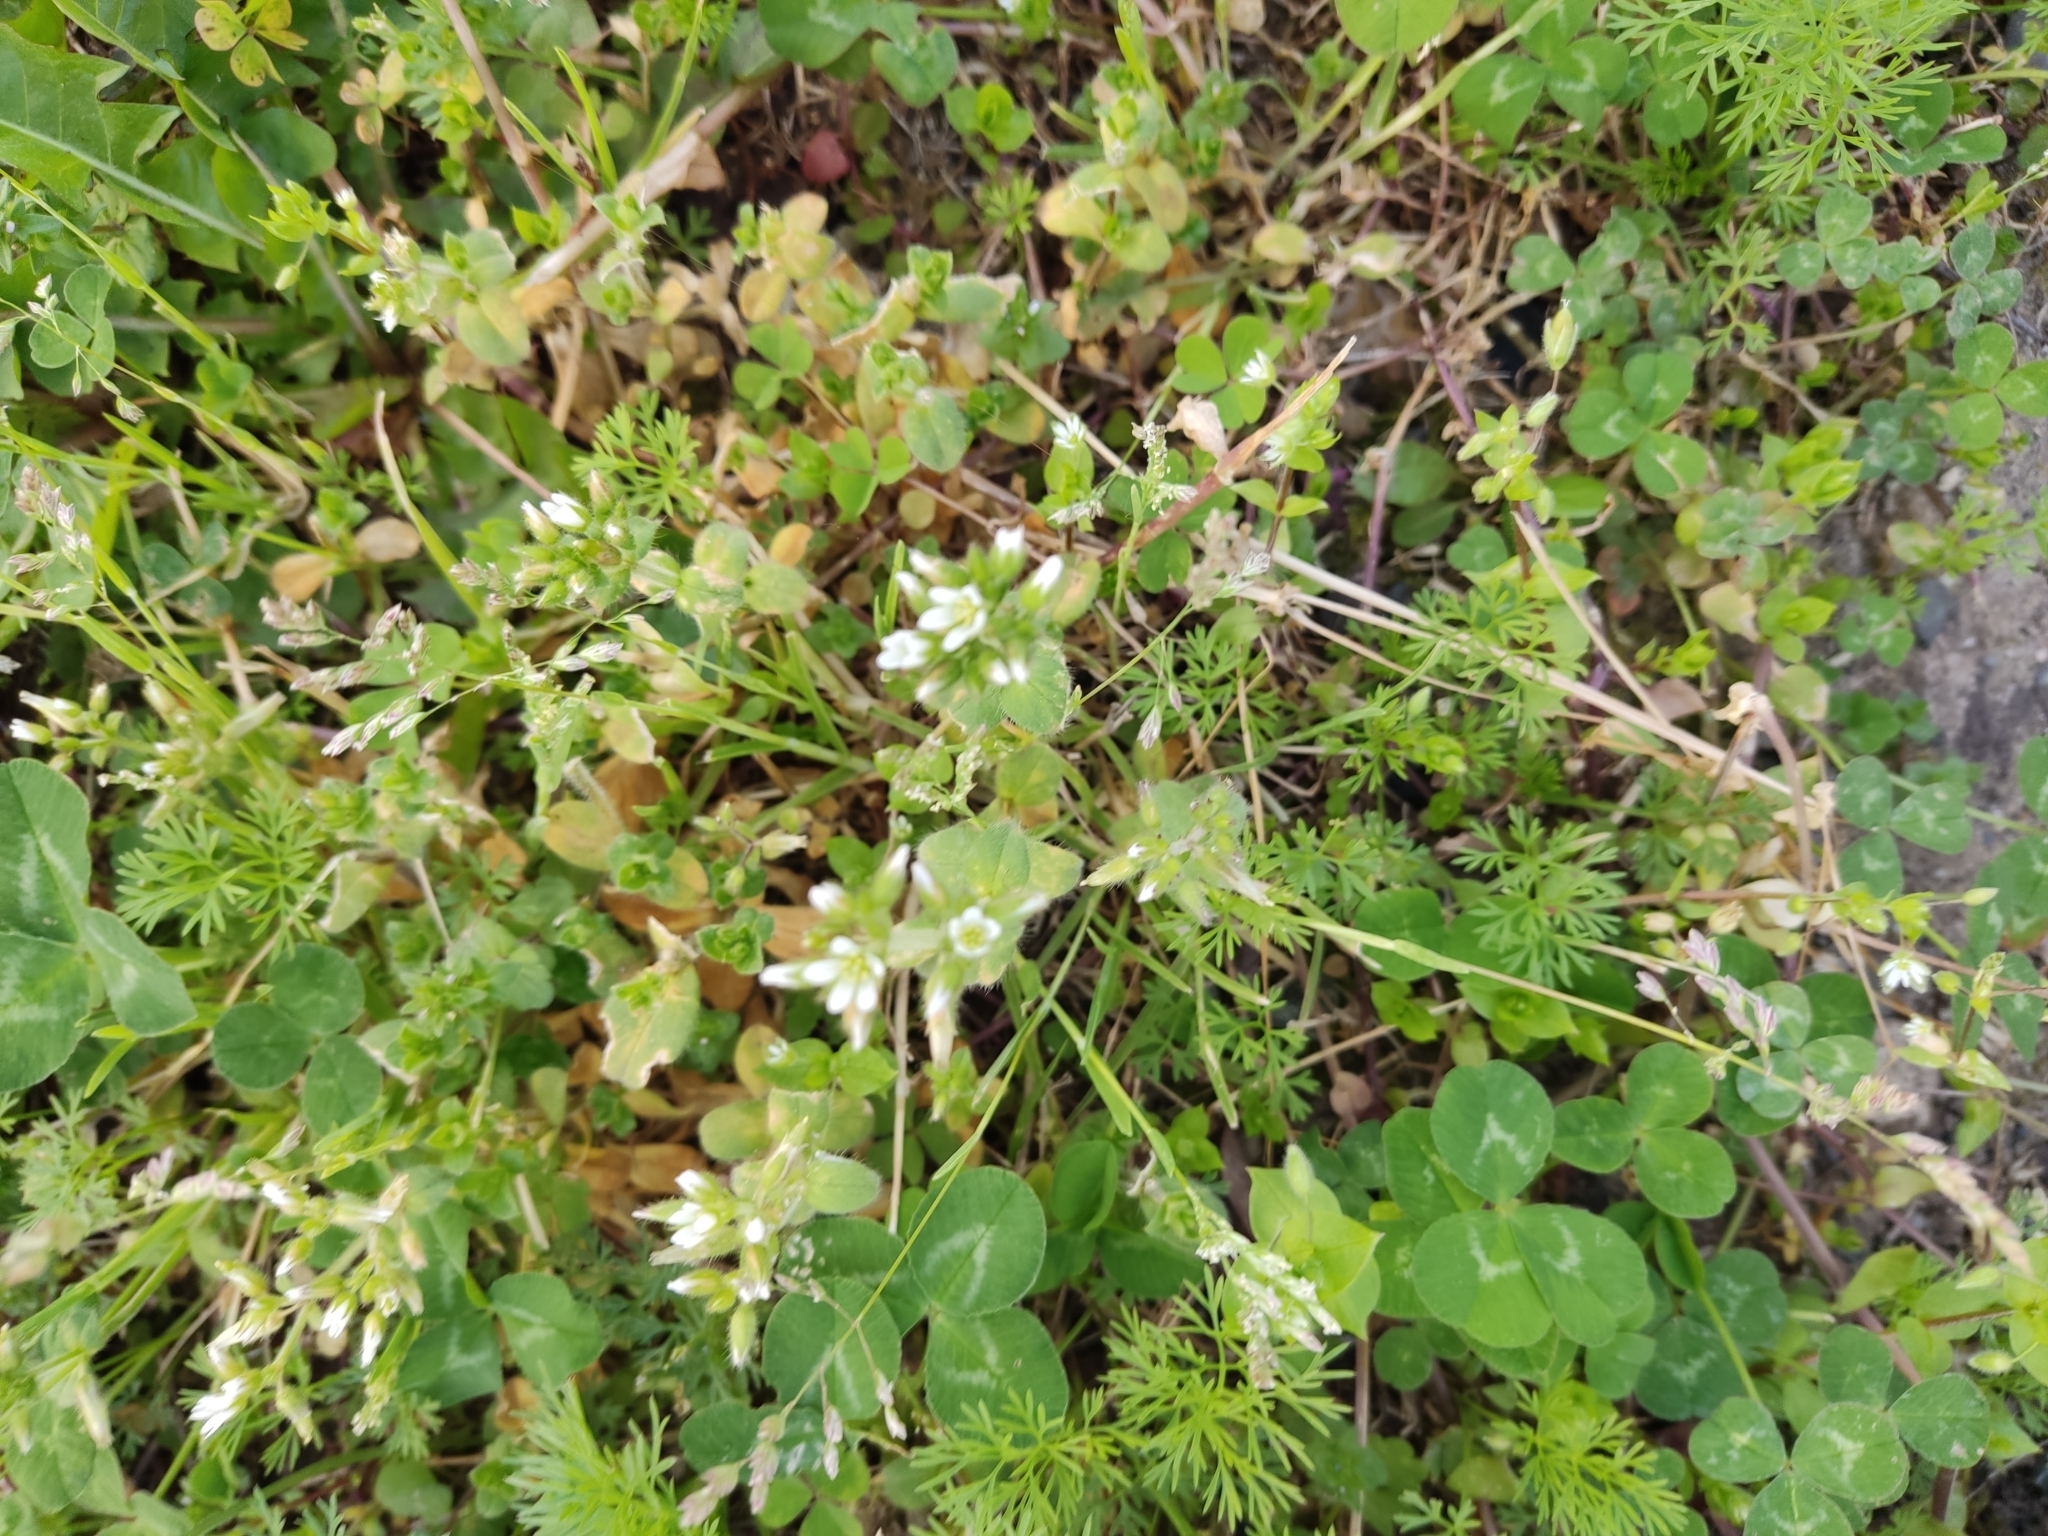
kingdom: Plantae
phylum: Tracheophyta
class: Magnoliopsida
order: Caryophyllales
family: Caryophyllaceae
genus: Cerastium
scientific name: Cerastium glomeratum
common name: Sticky chickweed
